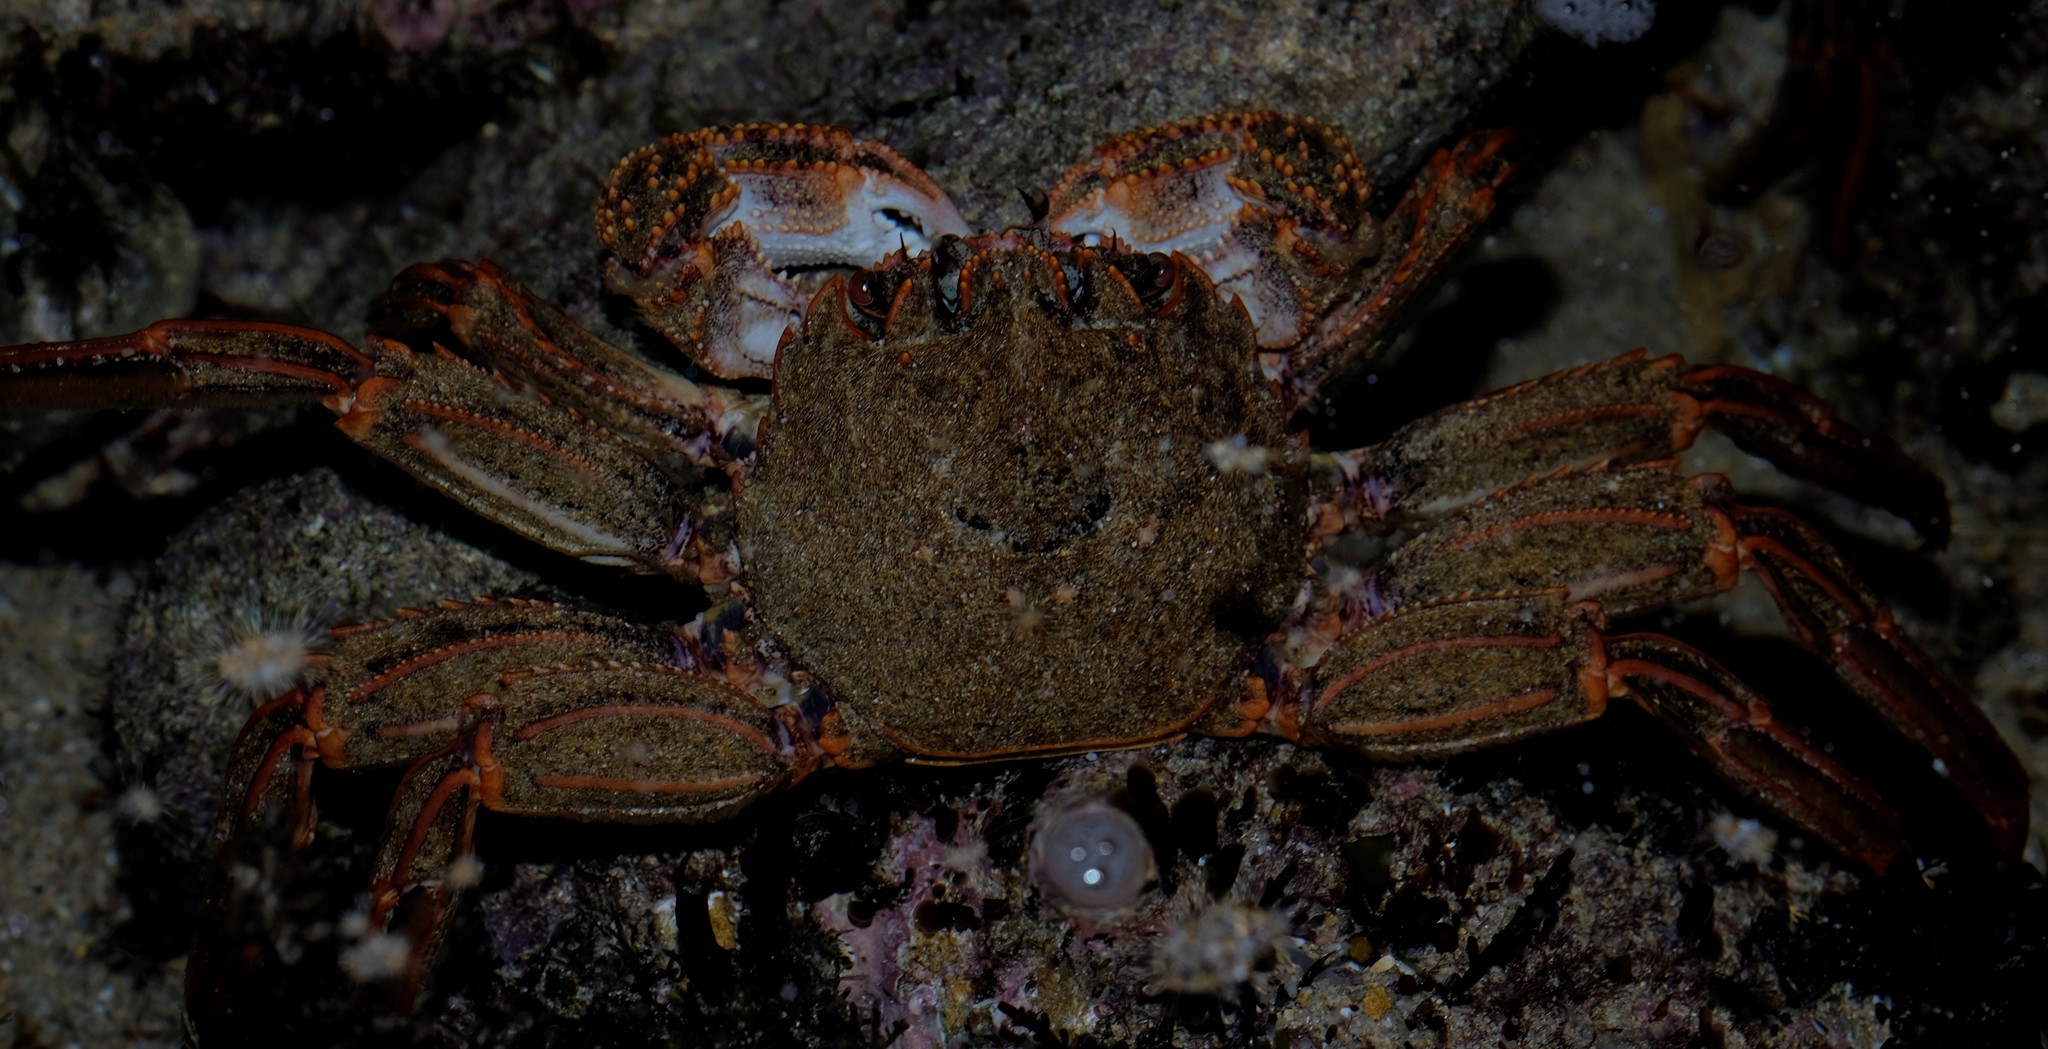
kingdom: Animalia
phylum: Arthropoda
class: Malacostraca
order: Decapoda
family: Plagusiidae
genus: Guinusia
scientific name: Guinusia chabrus
